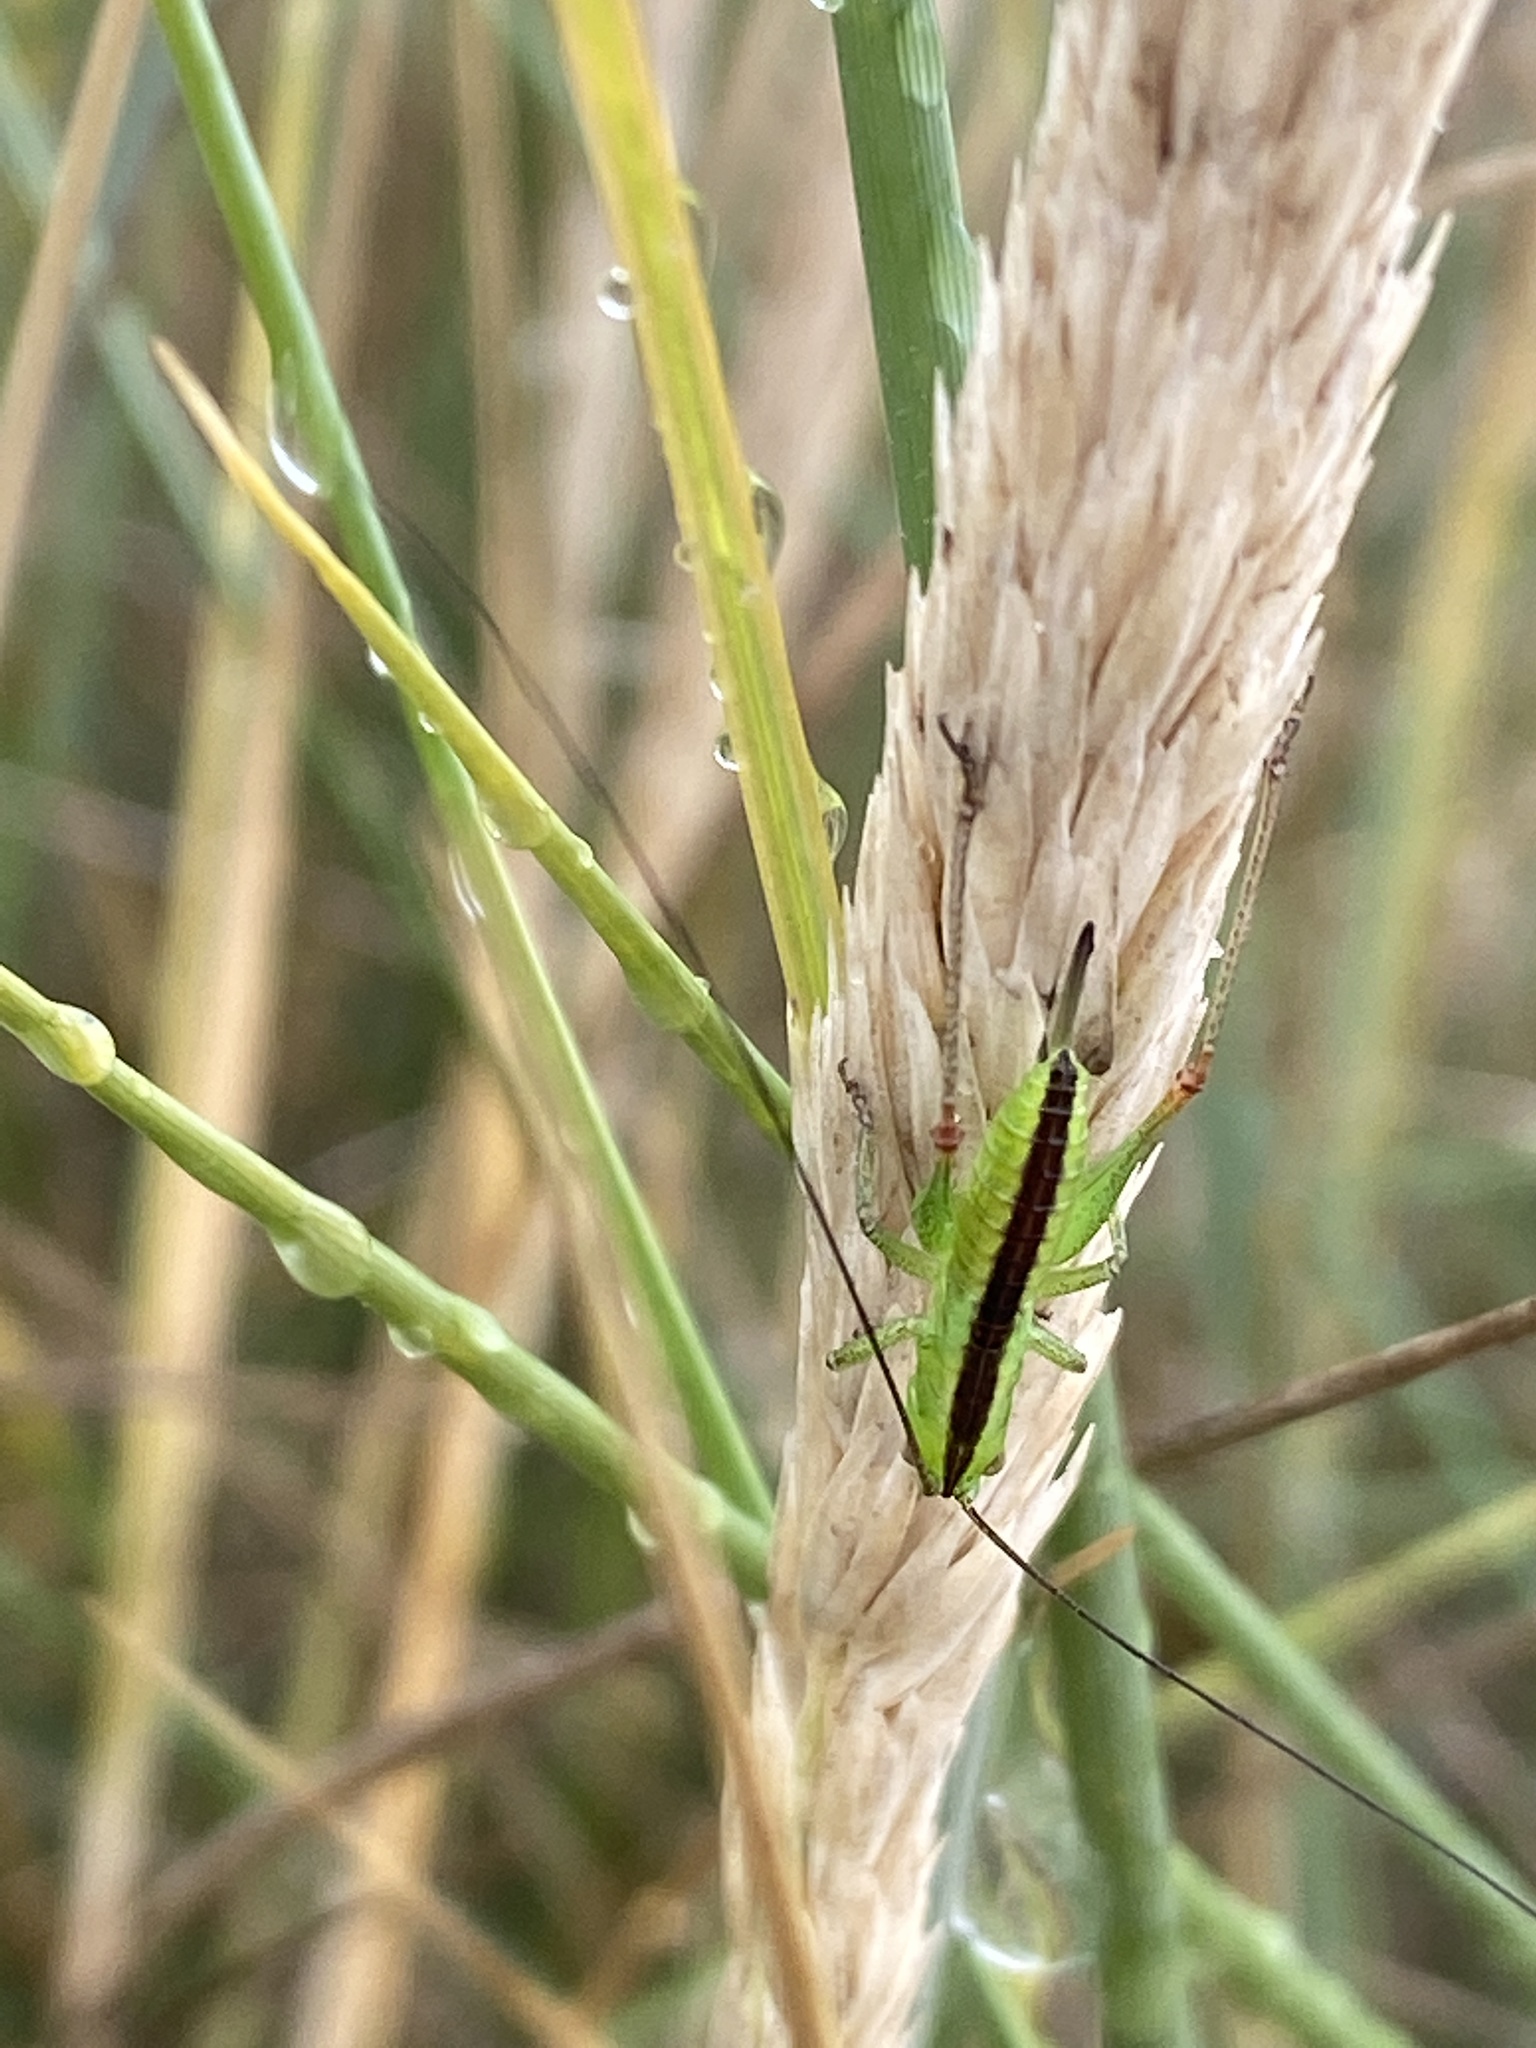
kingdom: Animalia
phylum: Arthropoda
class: Insecta
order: Orthoptera
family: Tettigoniidae
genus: Conocephalus
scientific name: Conocephalus dorsalis
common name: Short-winged conehead
